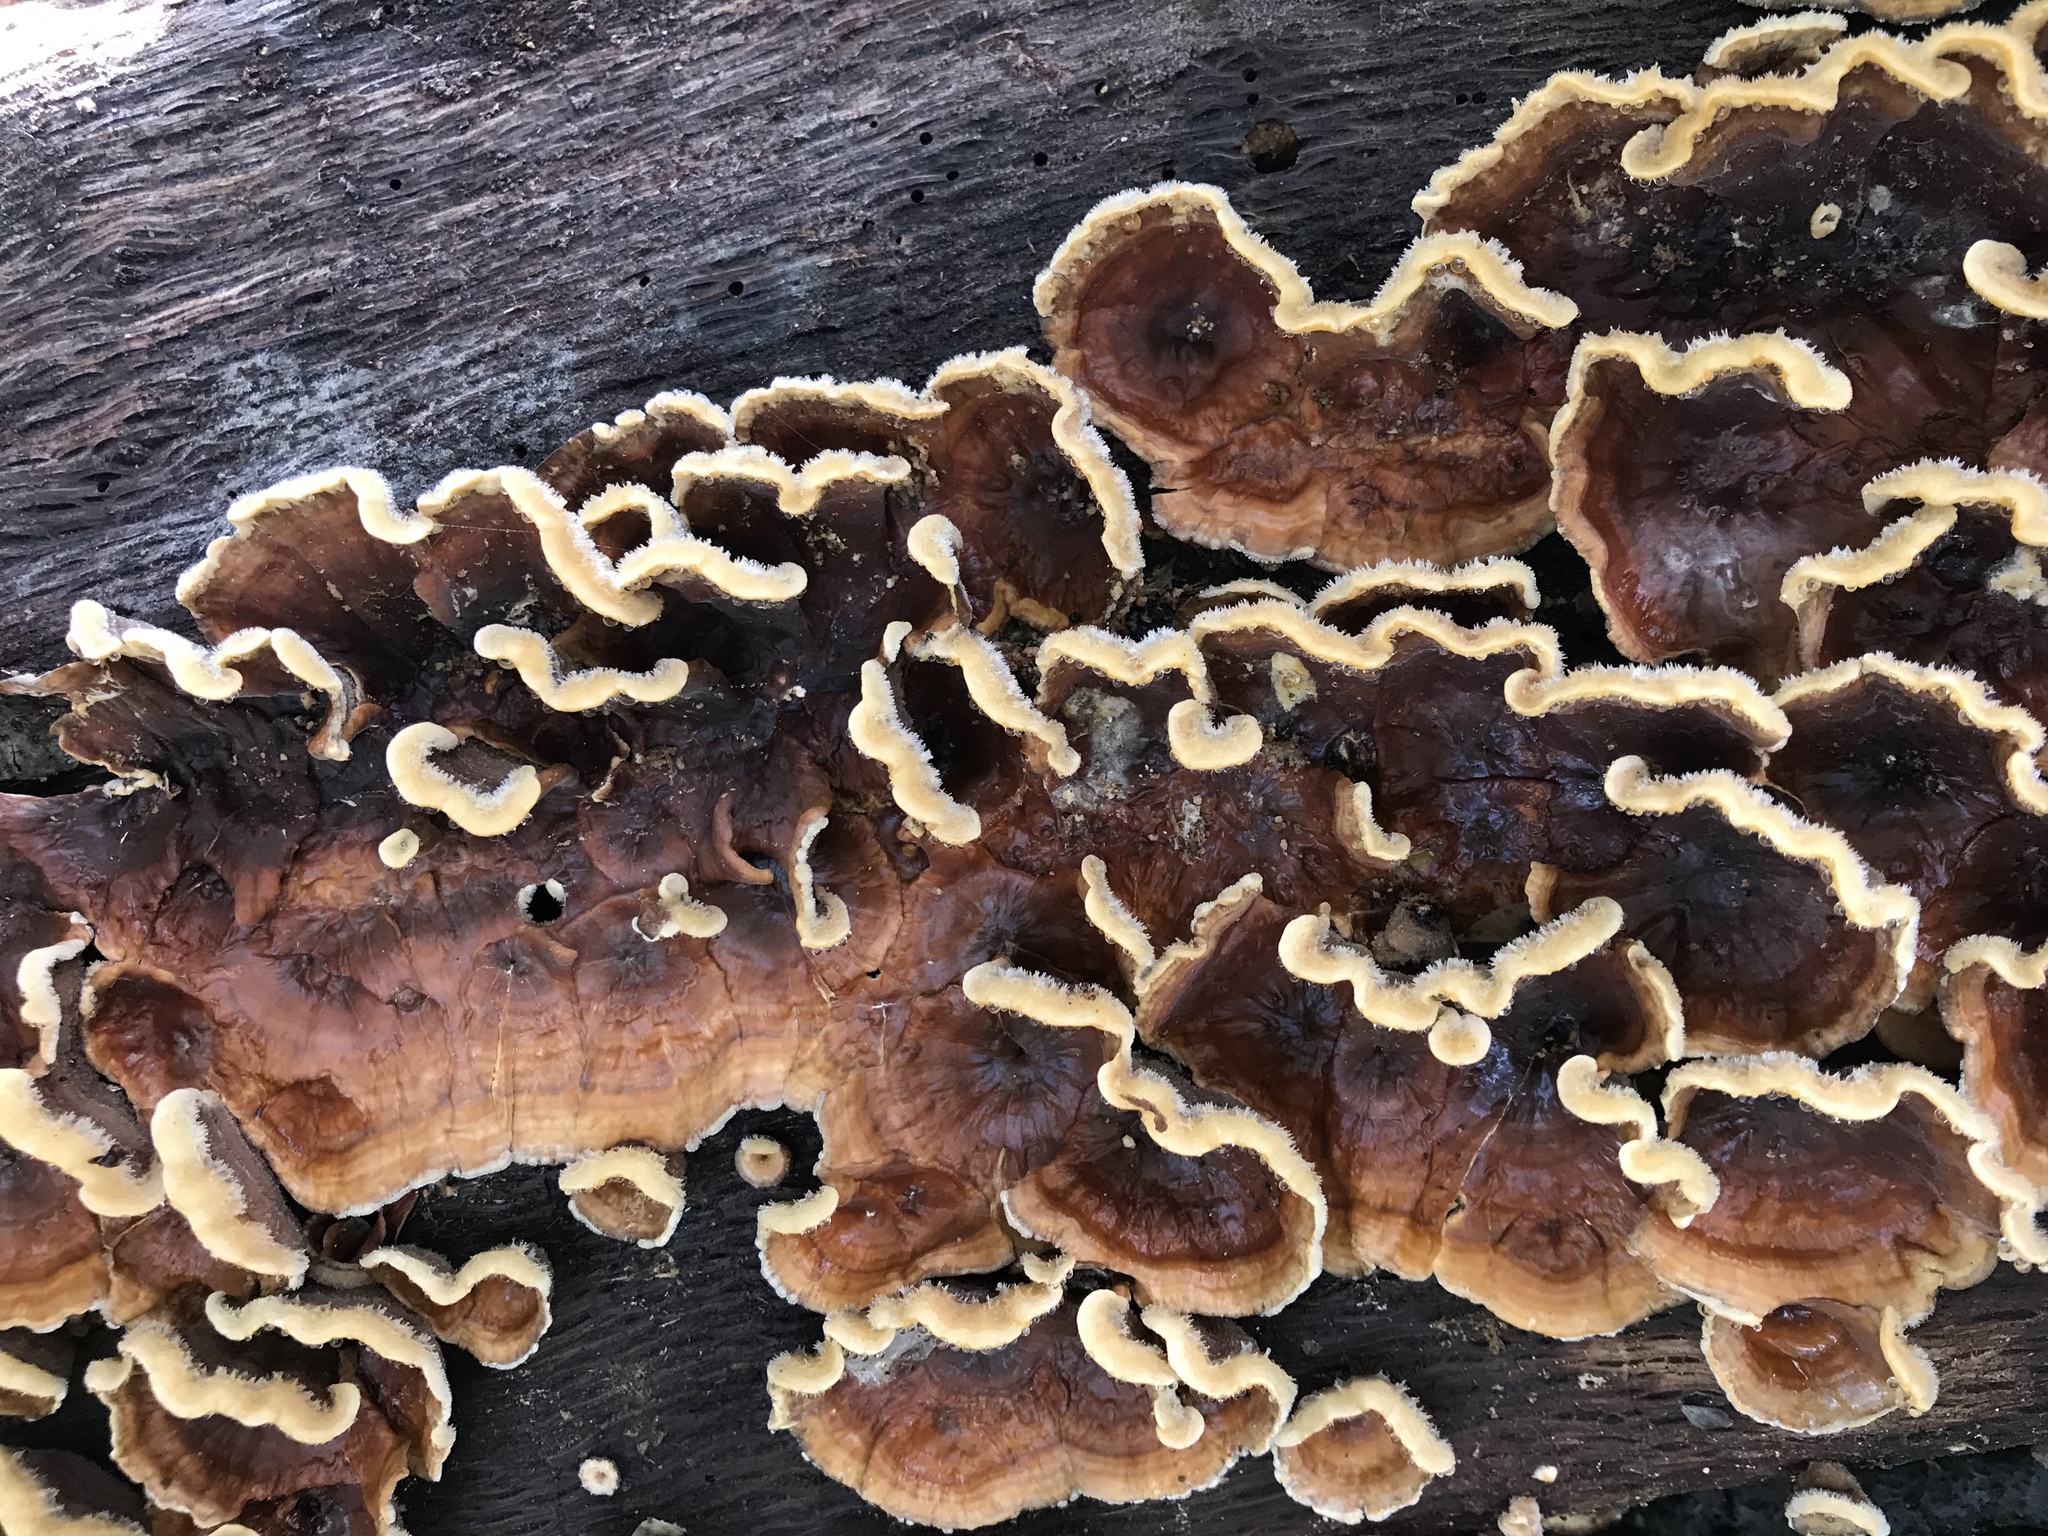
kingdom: Fungi
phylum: Basidiomycota
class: Agaricomycetes
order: Russulales
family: Stereaceae
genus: Stereum
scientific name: Stereum hirsutum
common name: Hairy curtain crust
